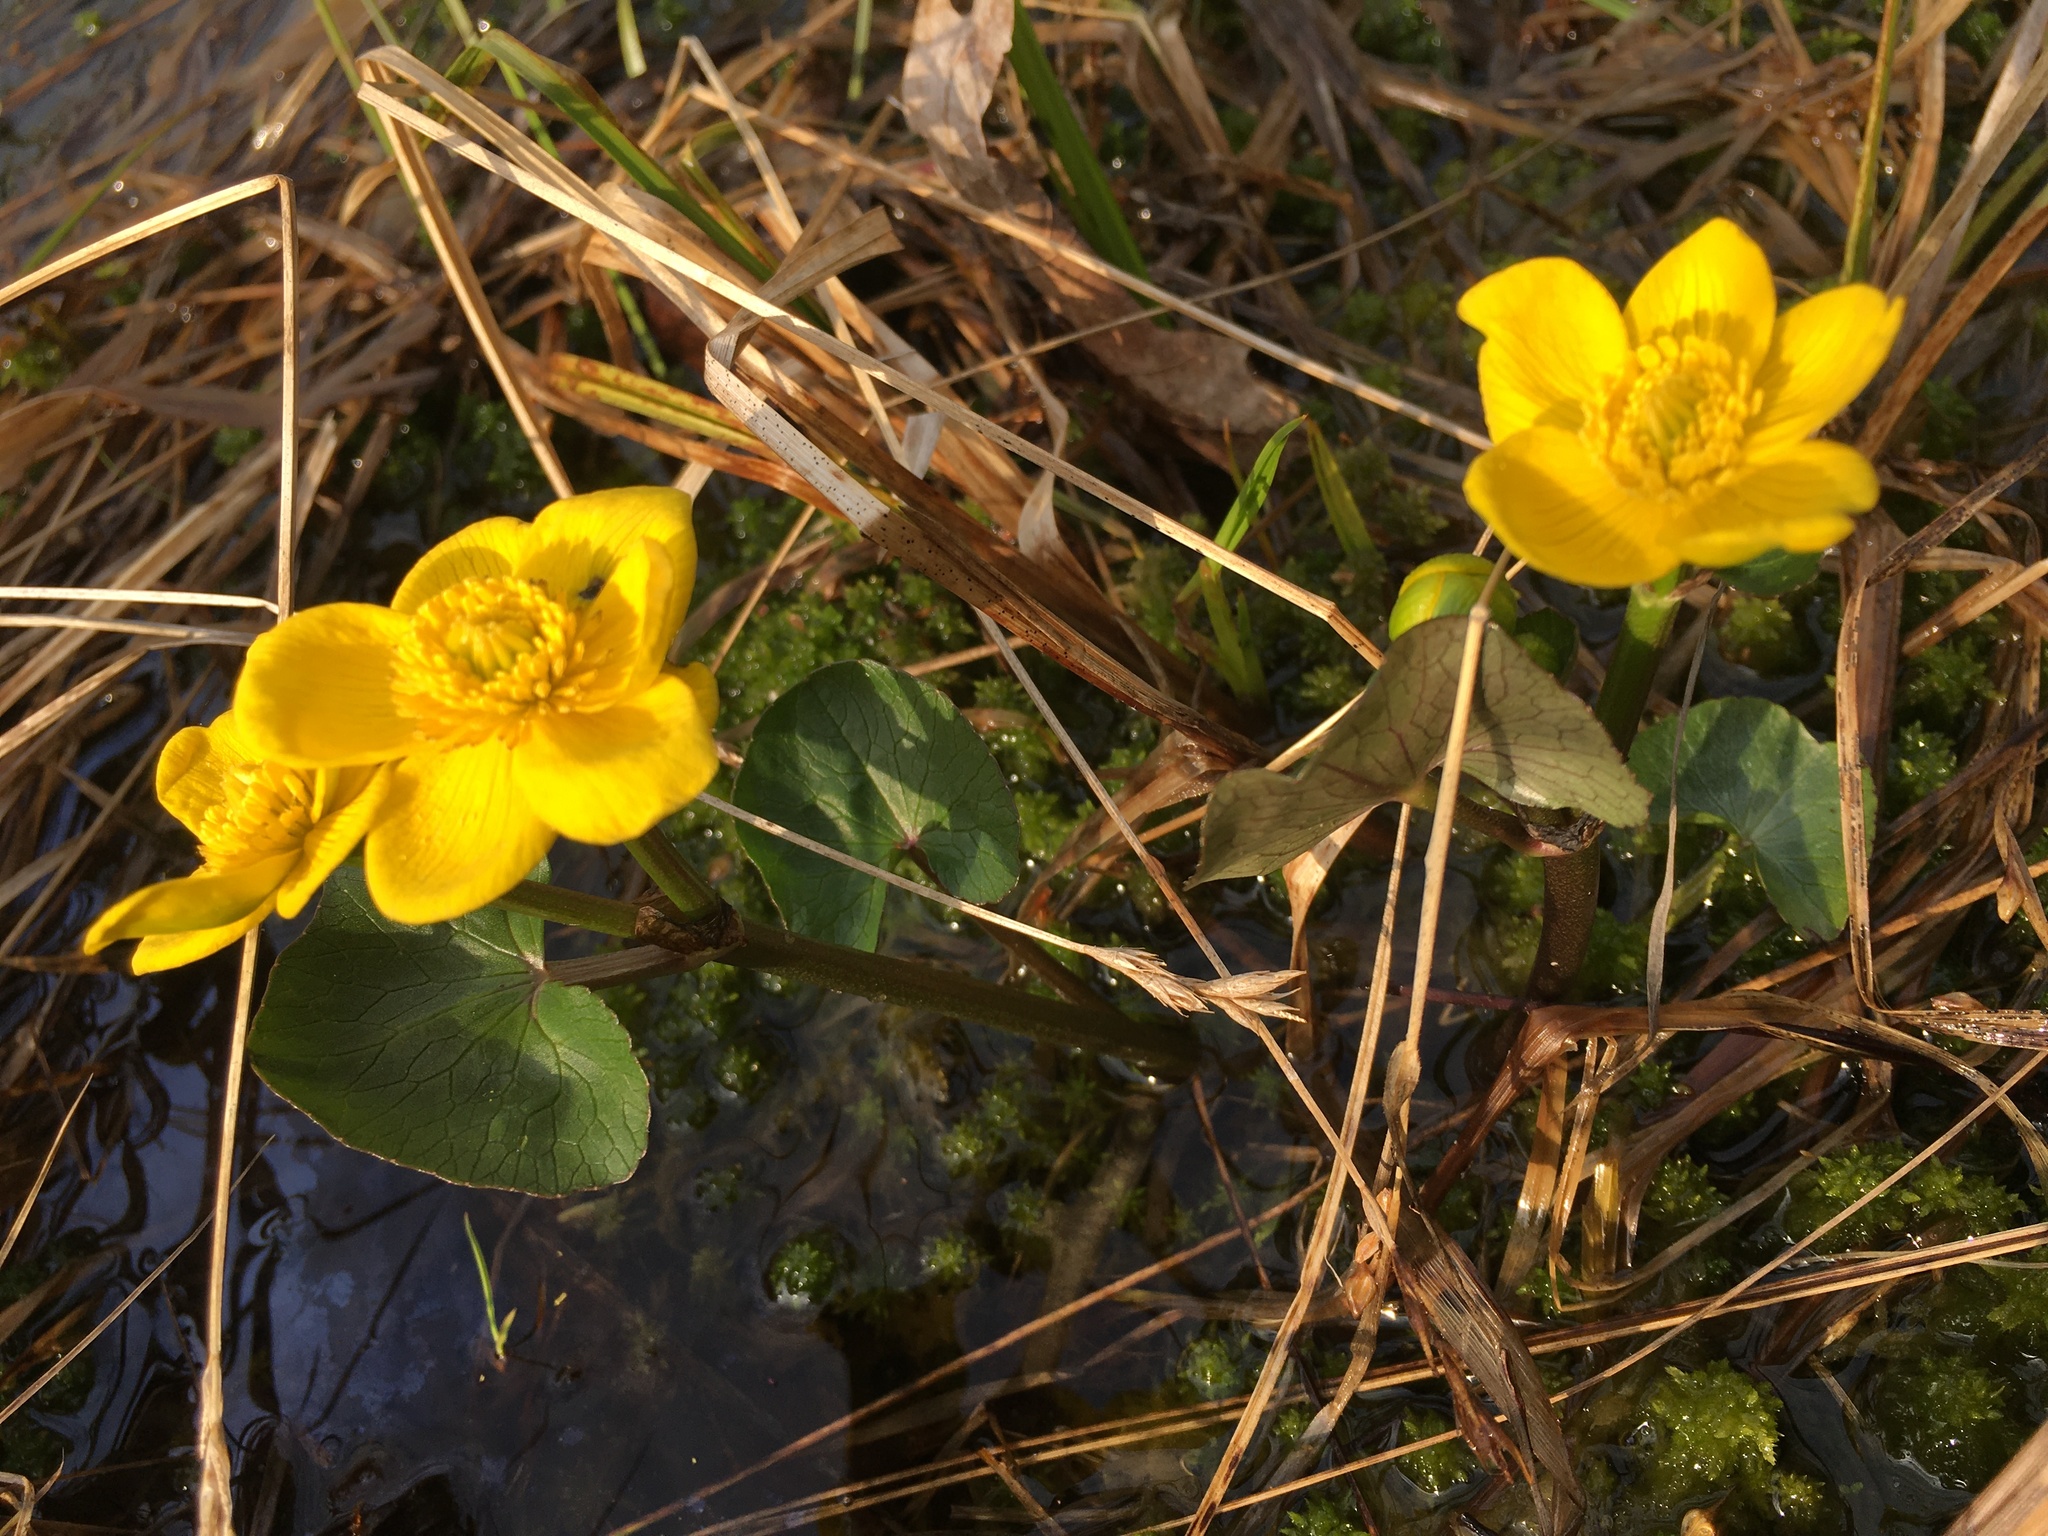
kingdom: Plantae
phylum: Tracheophyta
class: Magnoliopsida
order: Ranunculales
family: Ranunculaceae
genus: Caltha
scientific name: Caltha palustris
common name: Marsh marigold
